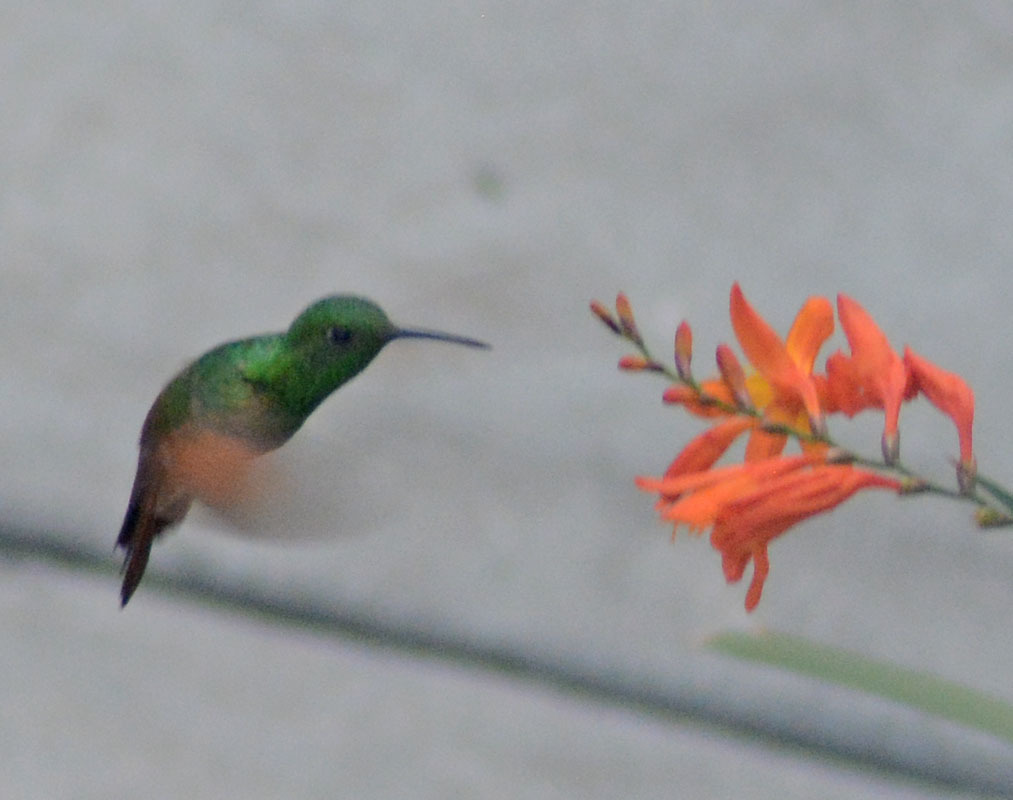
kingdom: Animalia
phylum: Chordata
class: Aves
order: Apodiformes
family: Trochilidae
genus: Saucerottia
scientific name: Saucerottia beryllina
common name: Berylline hummingbird
